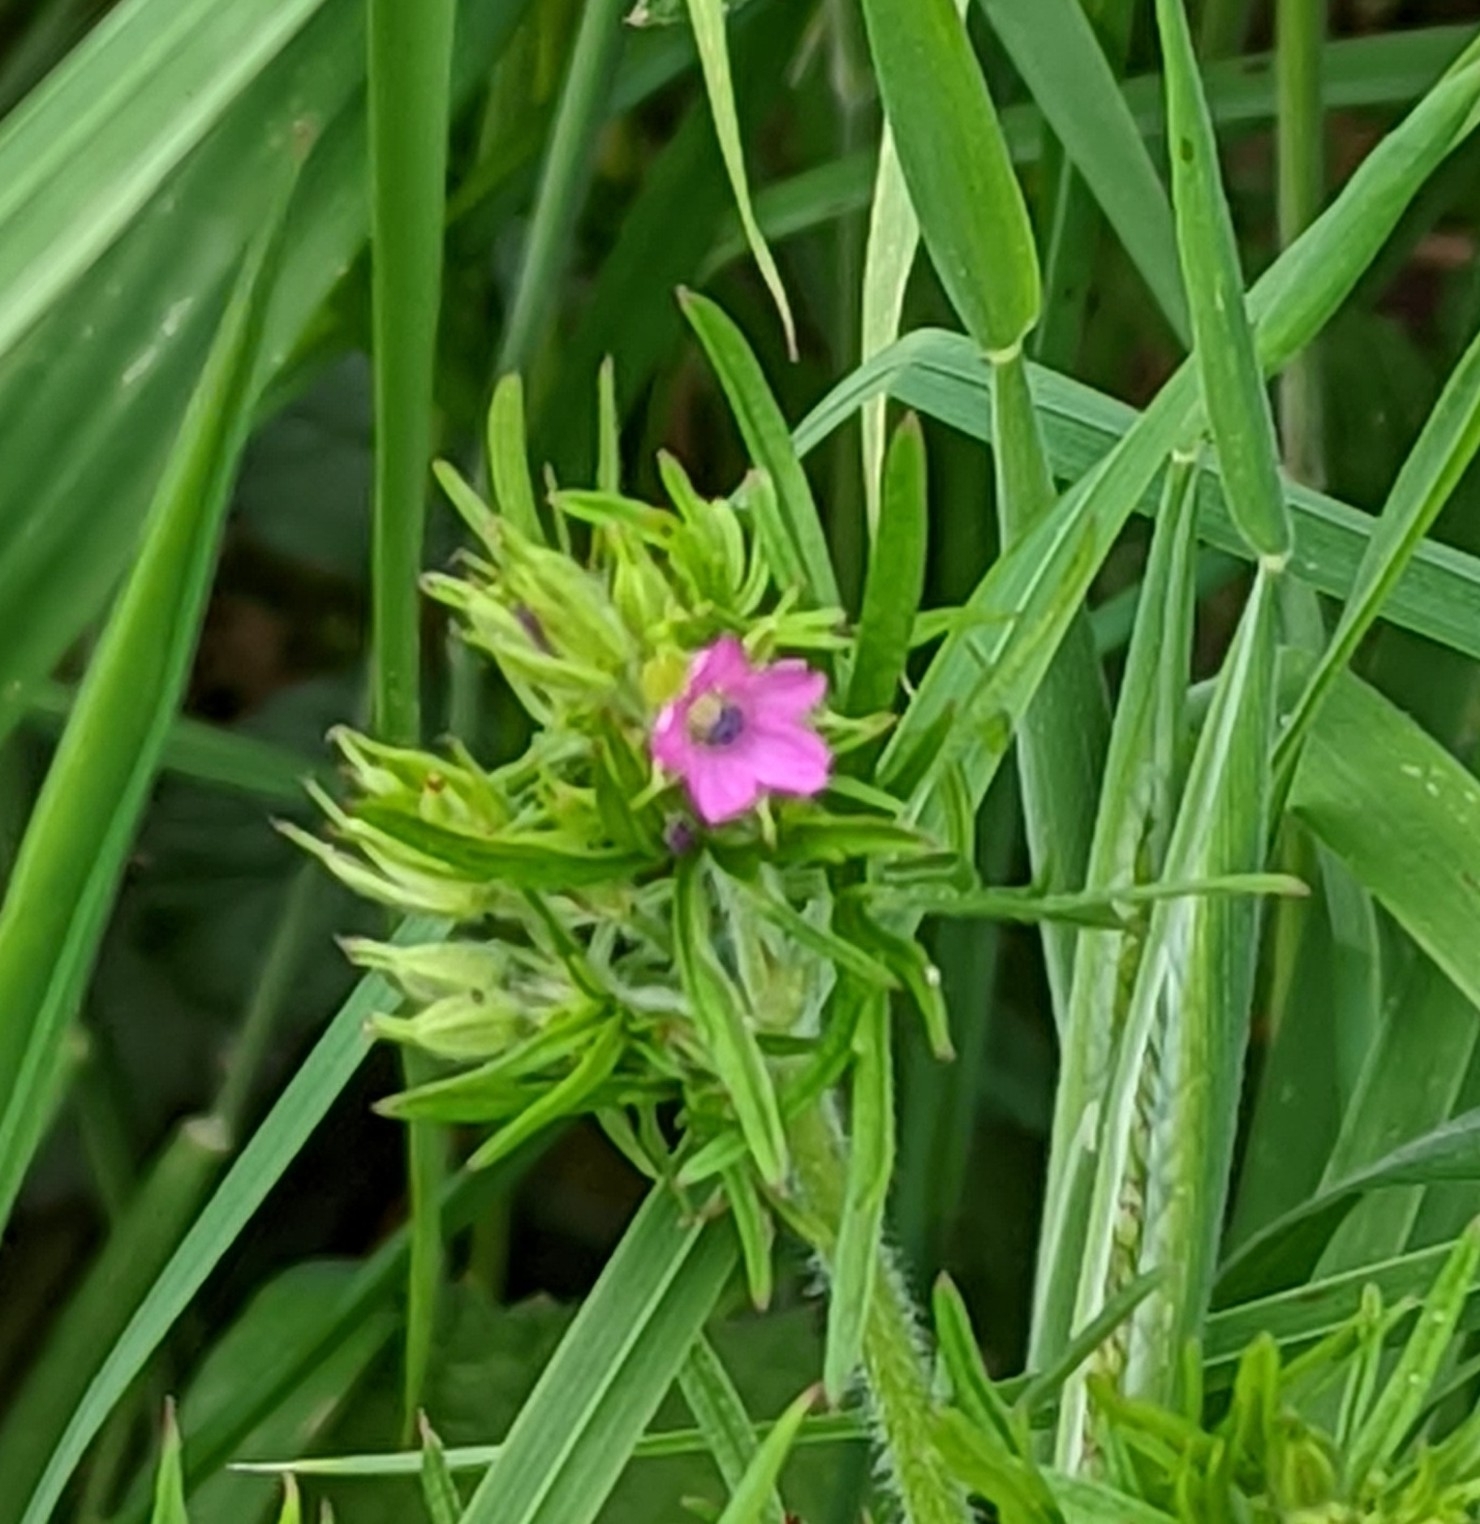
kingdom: Plantae
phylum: Tracheophyta
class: Magnoliopsida
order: Geraniales
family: Geraniaceae
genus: Geranium
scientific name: Geranium dissectum
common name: Cut-leaved crane's-bill
